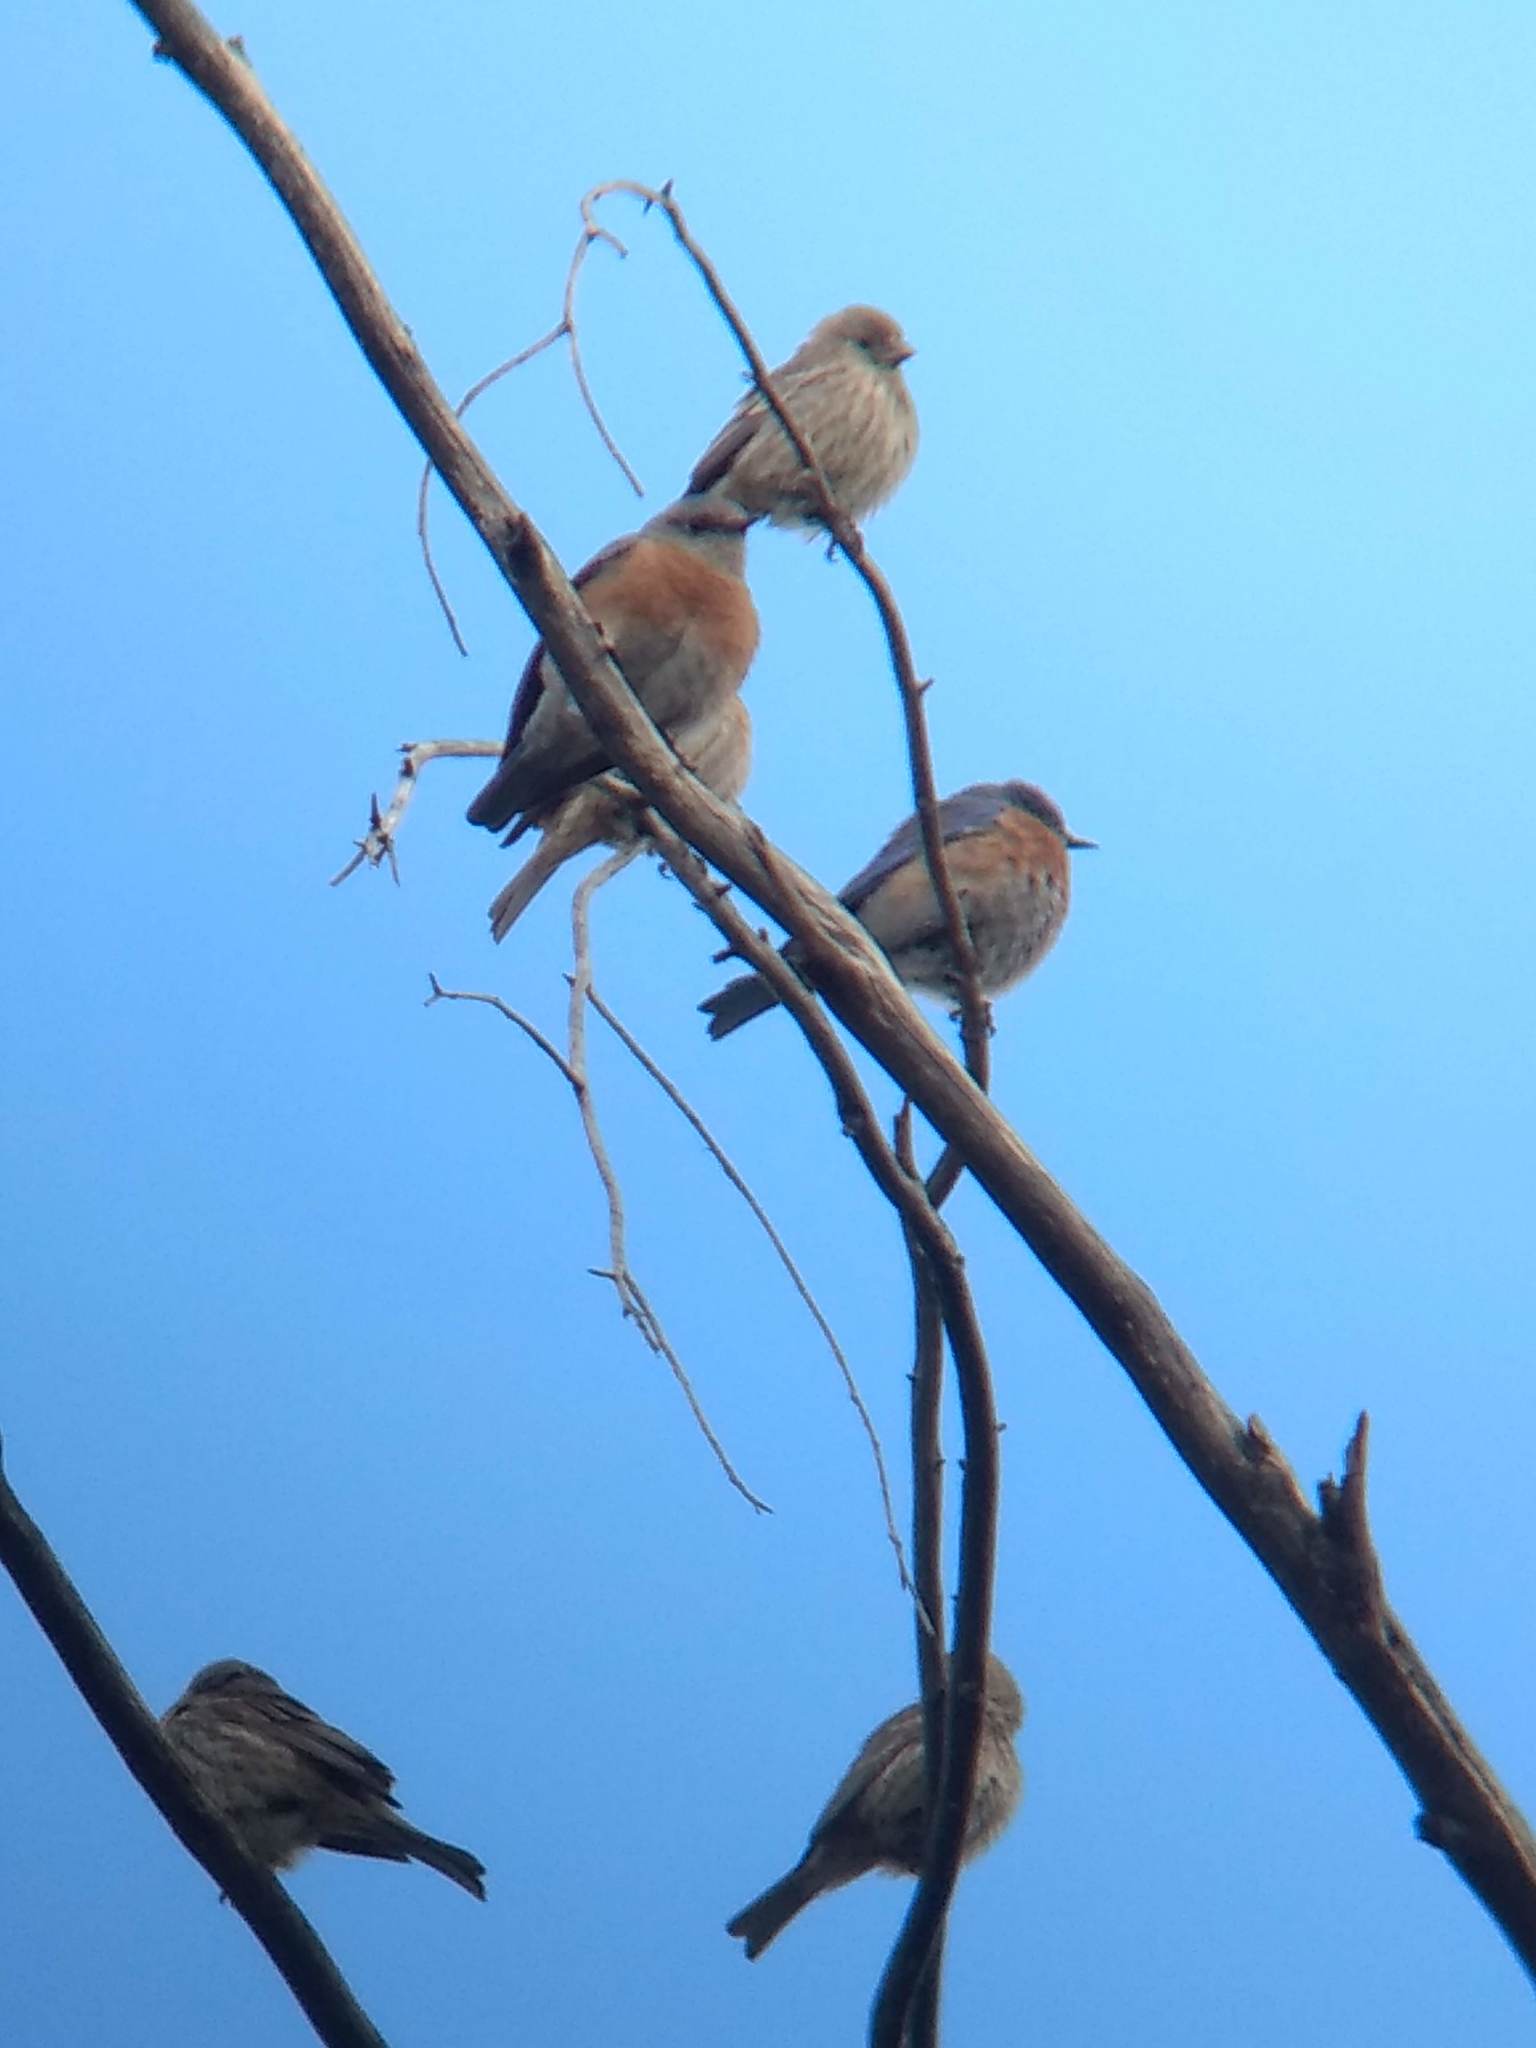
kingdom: Animalia
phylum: Chordata
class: Aves
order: Passeriformes
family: Turdidae
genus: Sialia
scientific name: Sialia mexicana
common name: Western bluebird
